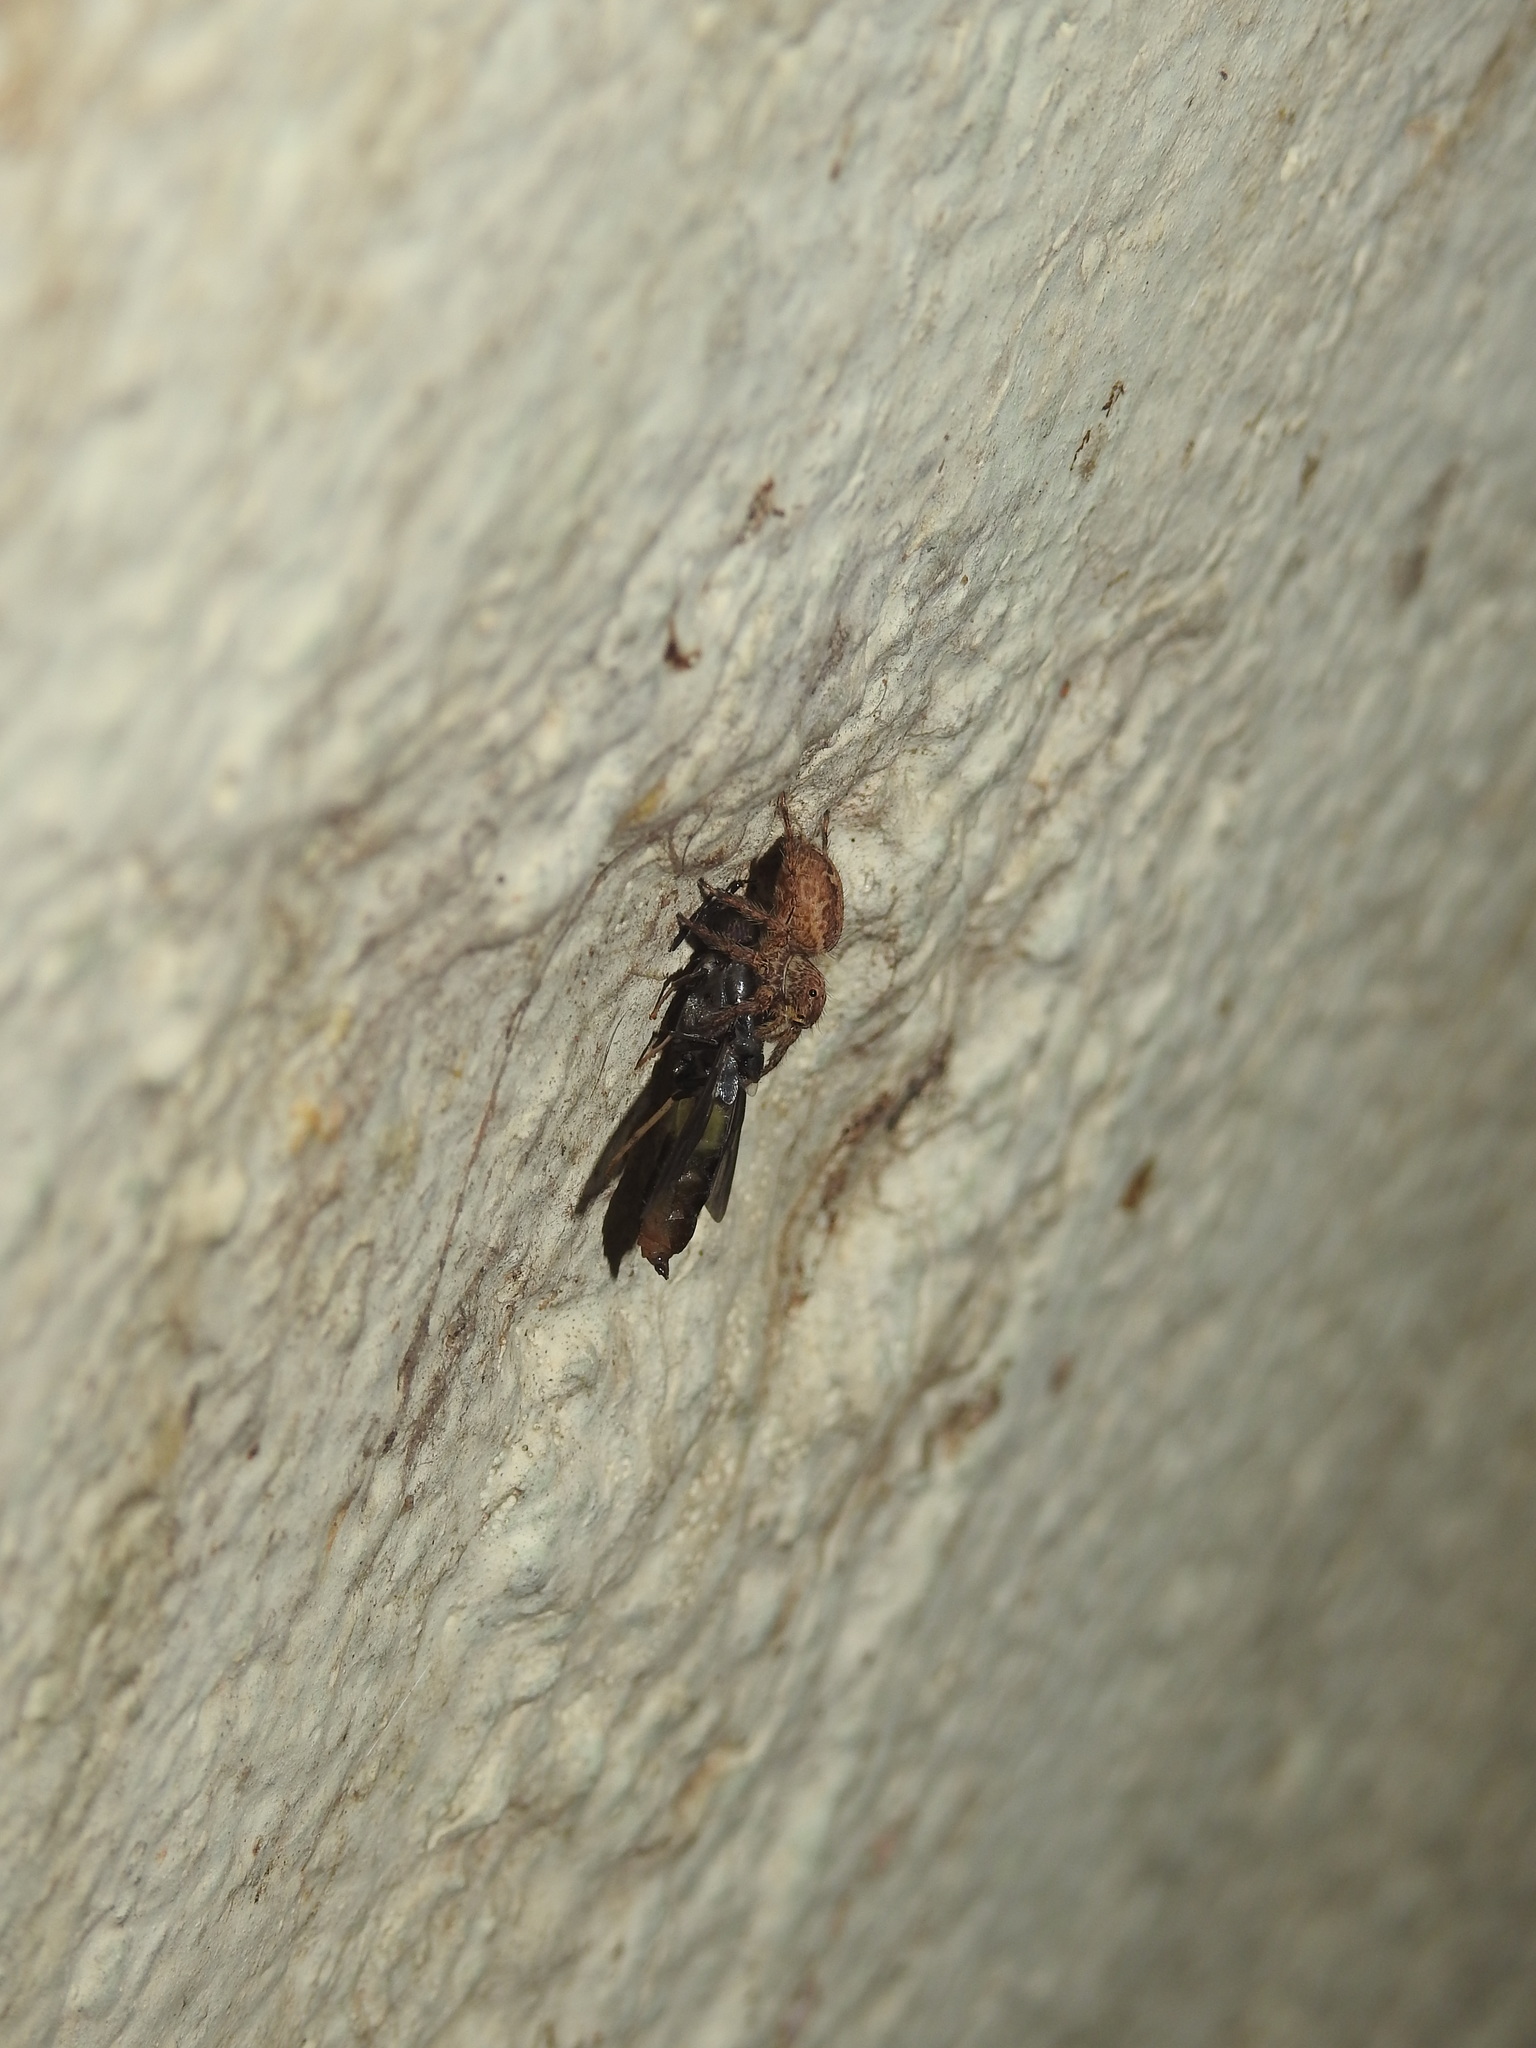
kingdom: Animalia
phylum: Arthropoda
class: Insecta
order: Diptera
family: Stratiomyidae
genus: Hermetia
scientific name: Hermetia illucens
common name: Black soldier fly
